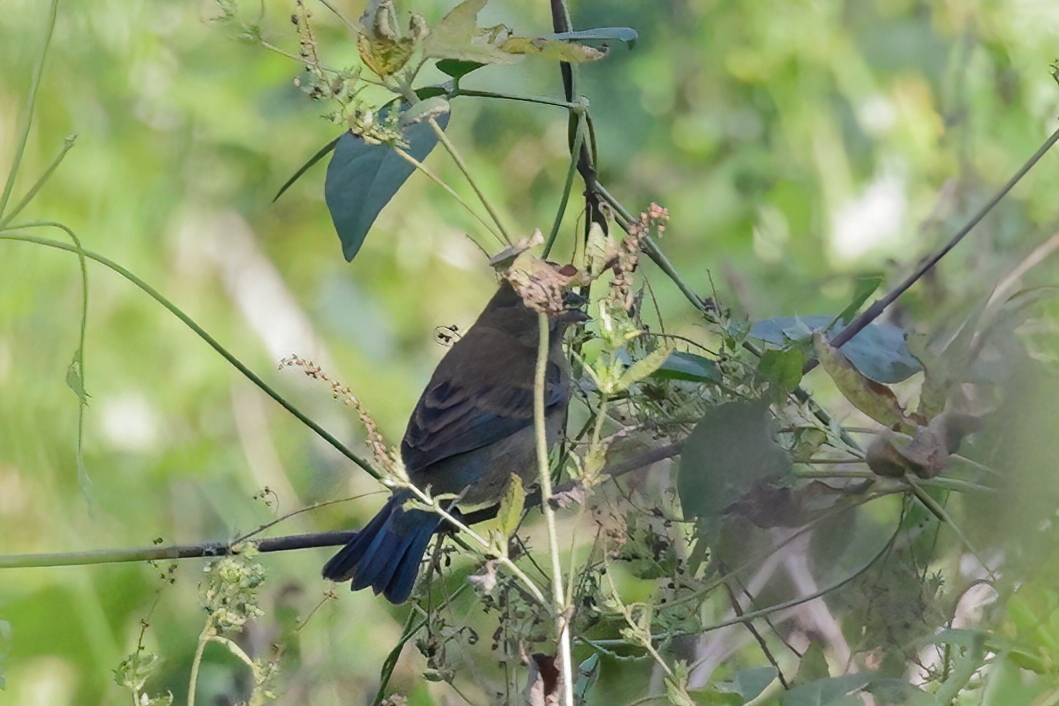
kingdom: Animalia
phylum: Chordata
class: Aves
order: Passeriformes
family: Cardinalidae
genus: Passerina
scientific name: Passerina cyanea
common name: Indigo bunting
